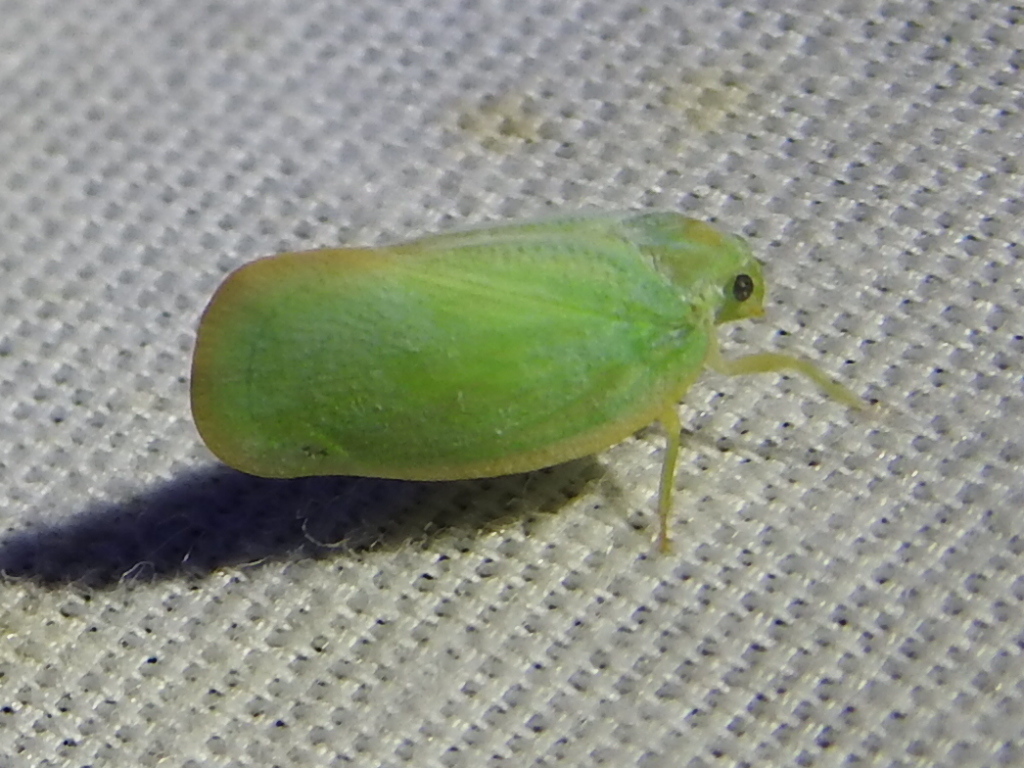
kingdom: Animalia
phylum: Arthropoda
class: Insecta
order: Hemiptera
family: Flatidae
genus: Ormenoides
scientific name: Ormenoides venusta
